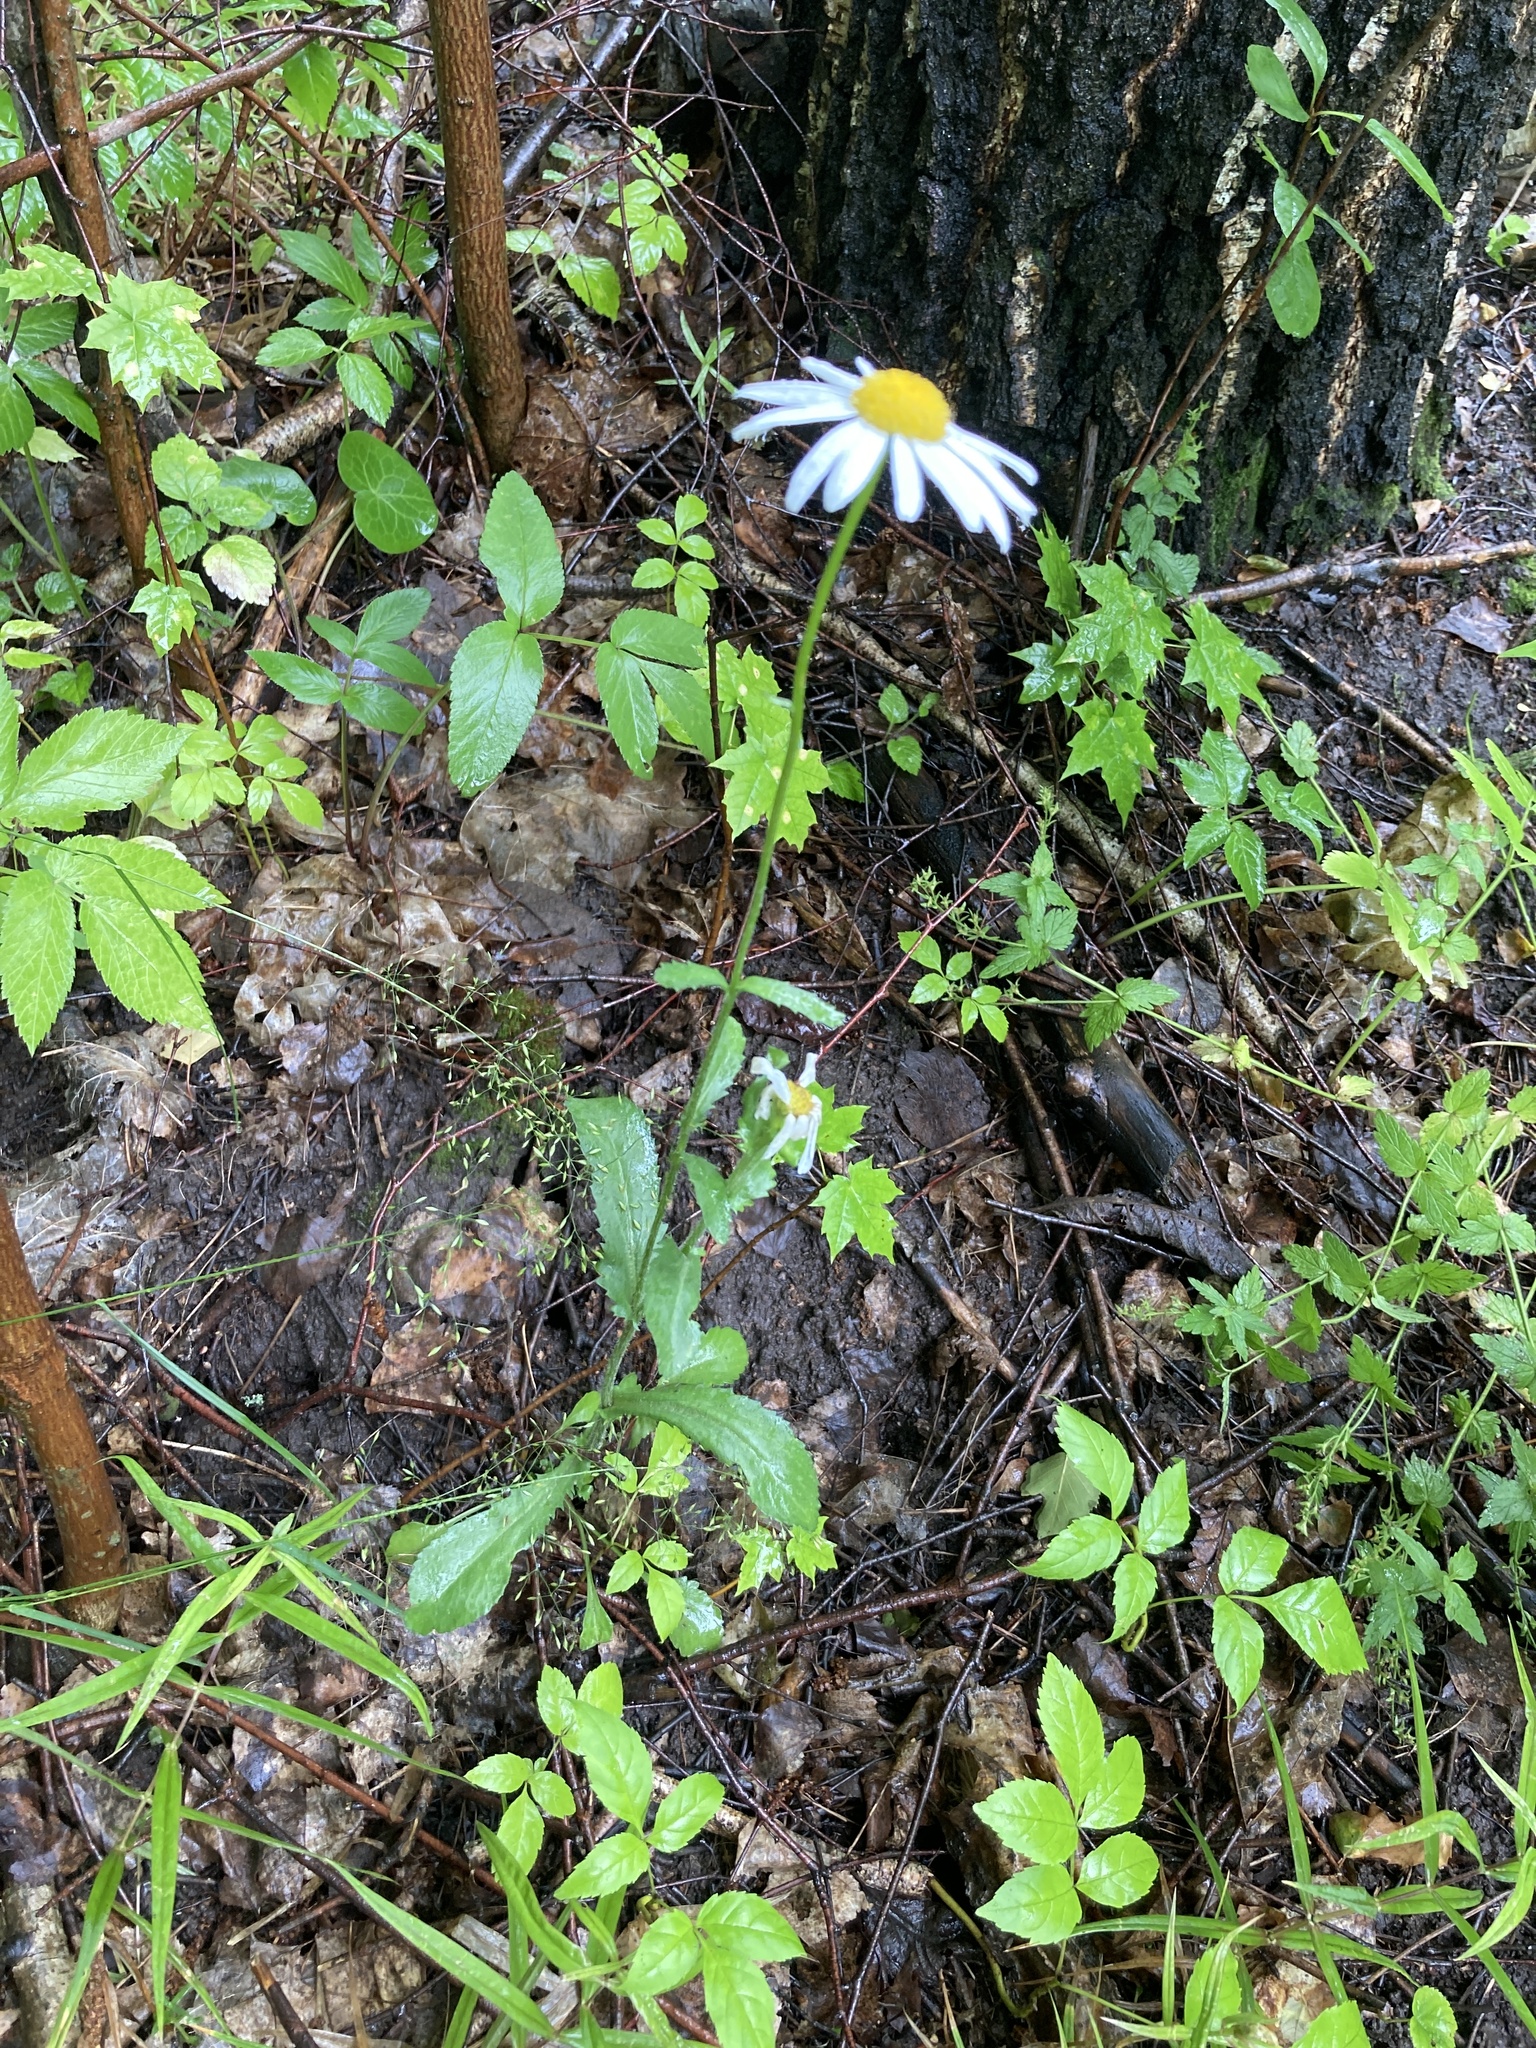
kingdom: Plantae
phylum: Tracheophyta
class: Magnoliopsida
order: Asterales
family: Asteraceae
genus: Leucanthemum
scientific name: Leucanthemum vulgare
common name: Oxeye daisy
